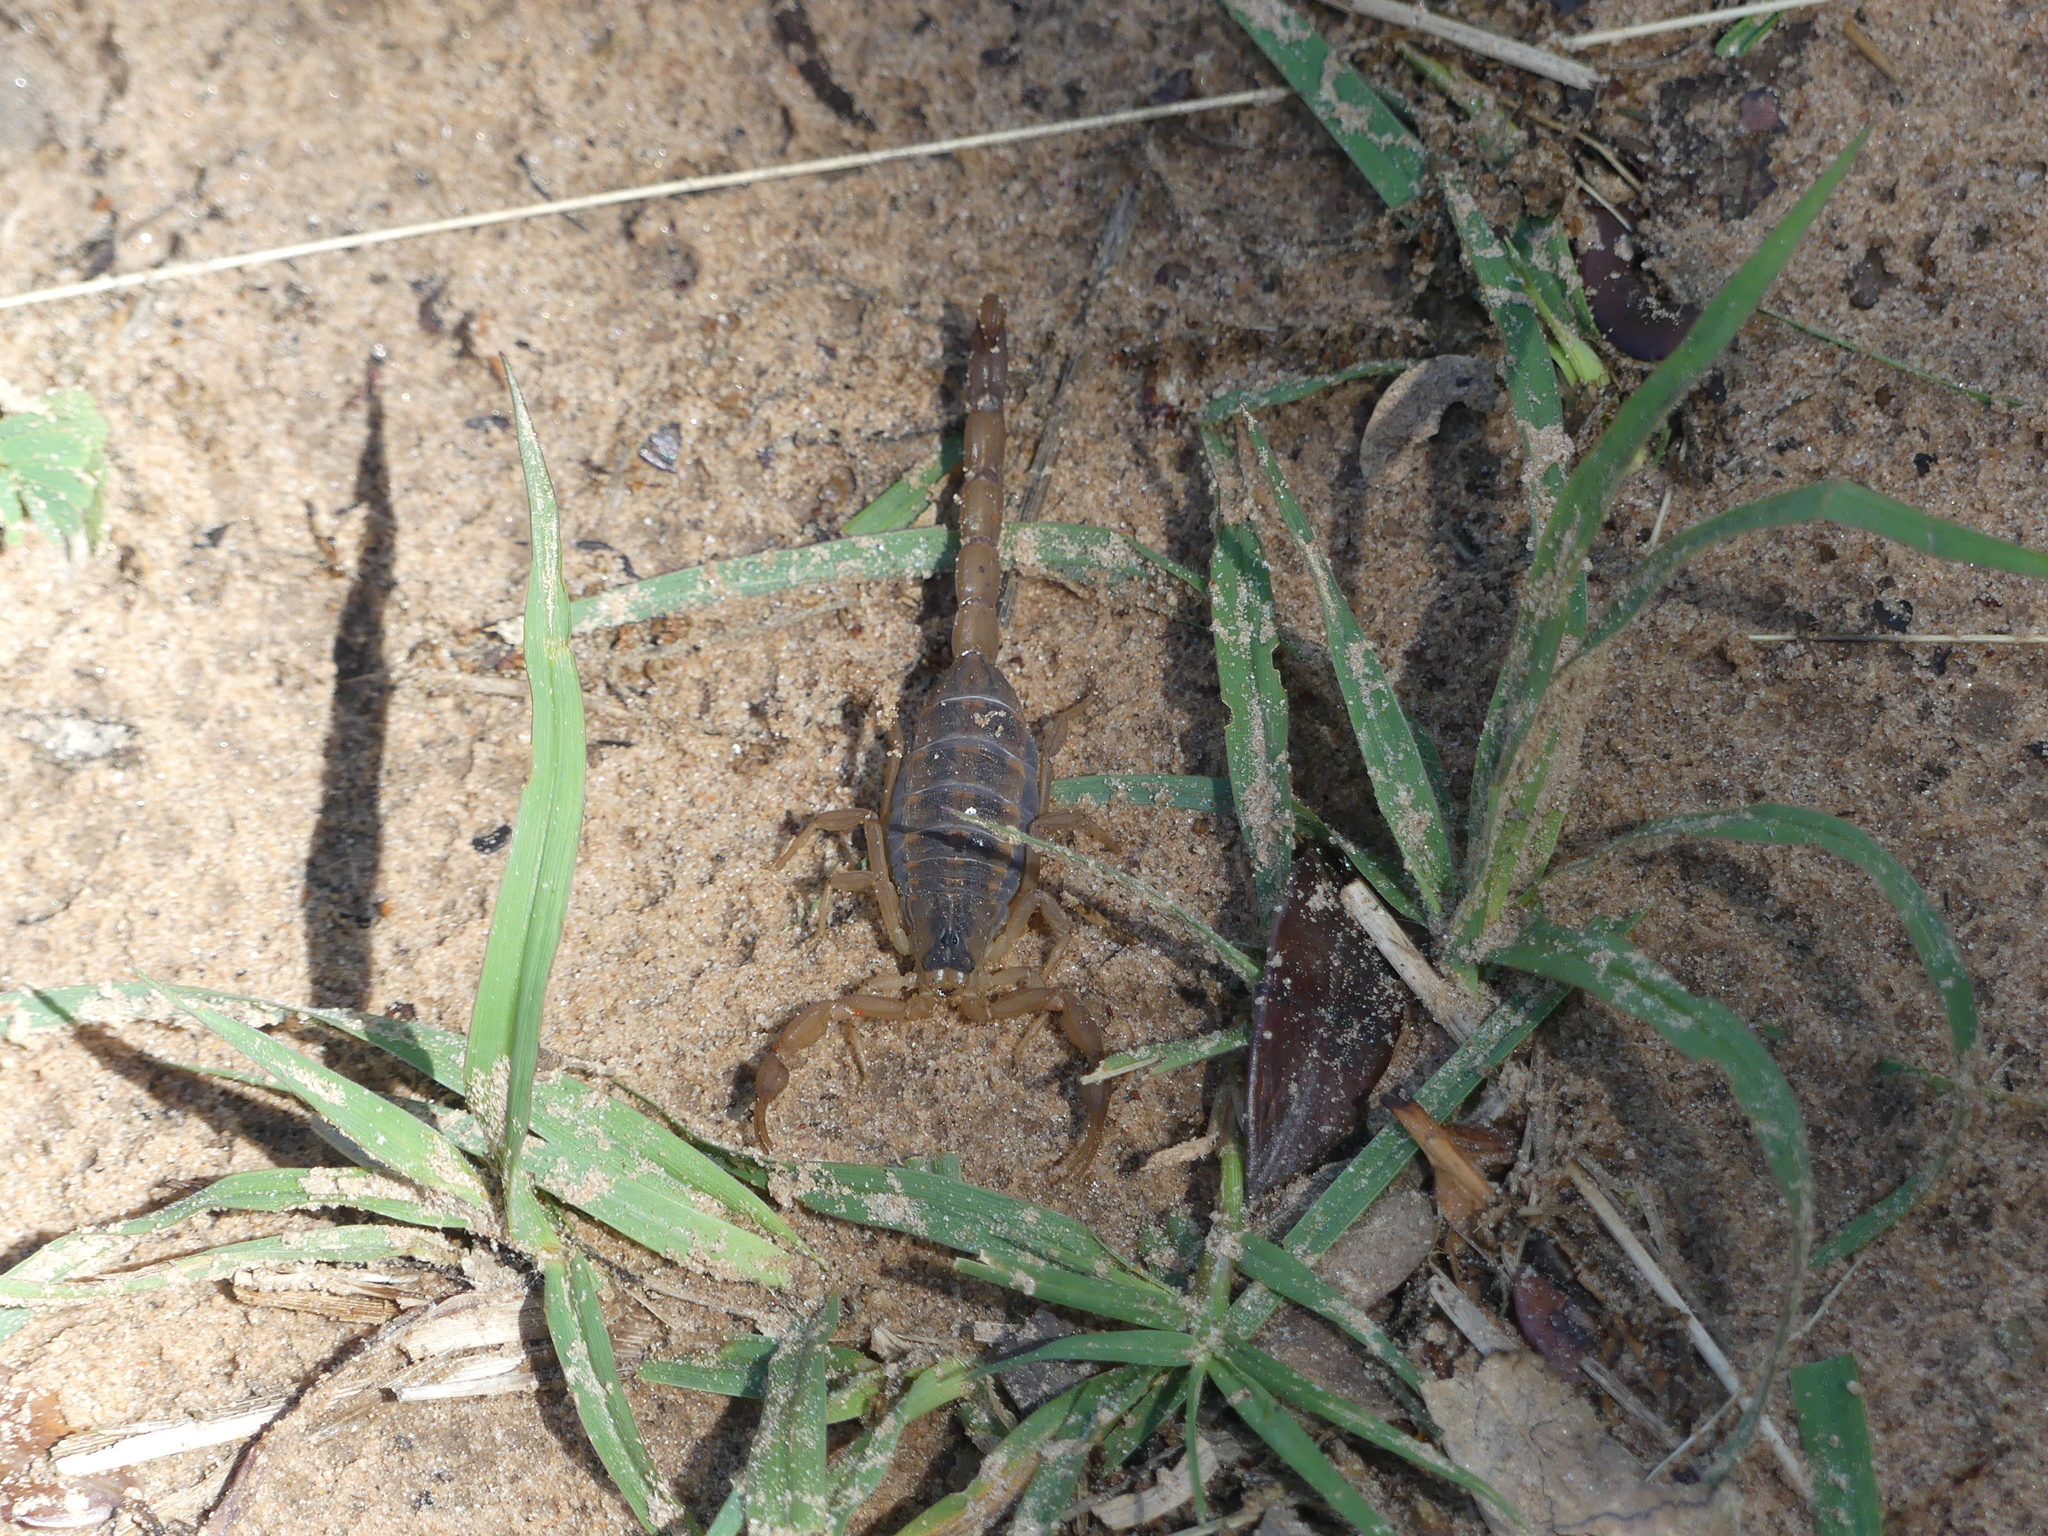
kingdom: Animalia
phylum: Arthropoda
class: Arachnida
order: Scorpiones
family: Buthidae
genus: Centruroides
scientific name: Centruroides vittatus
